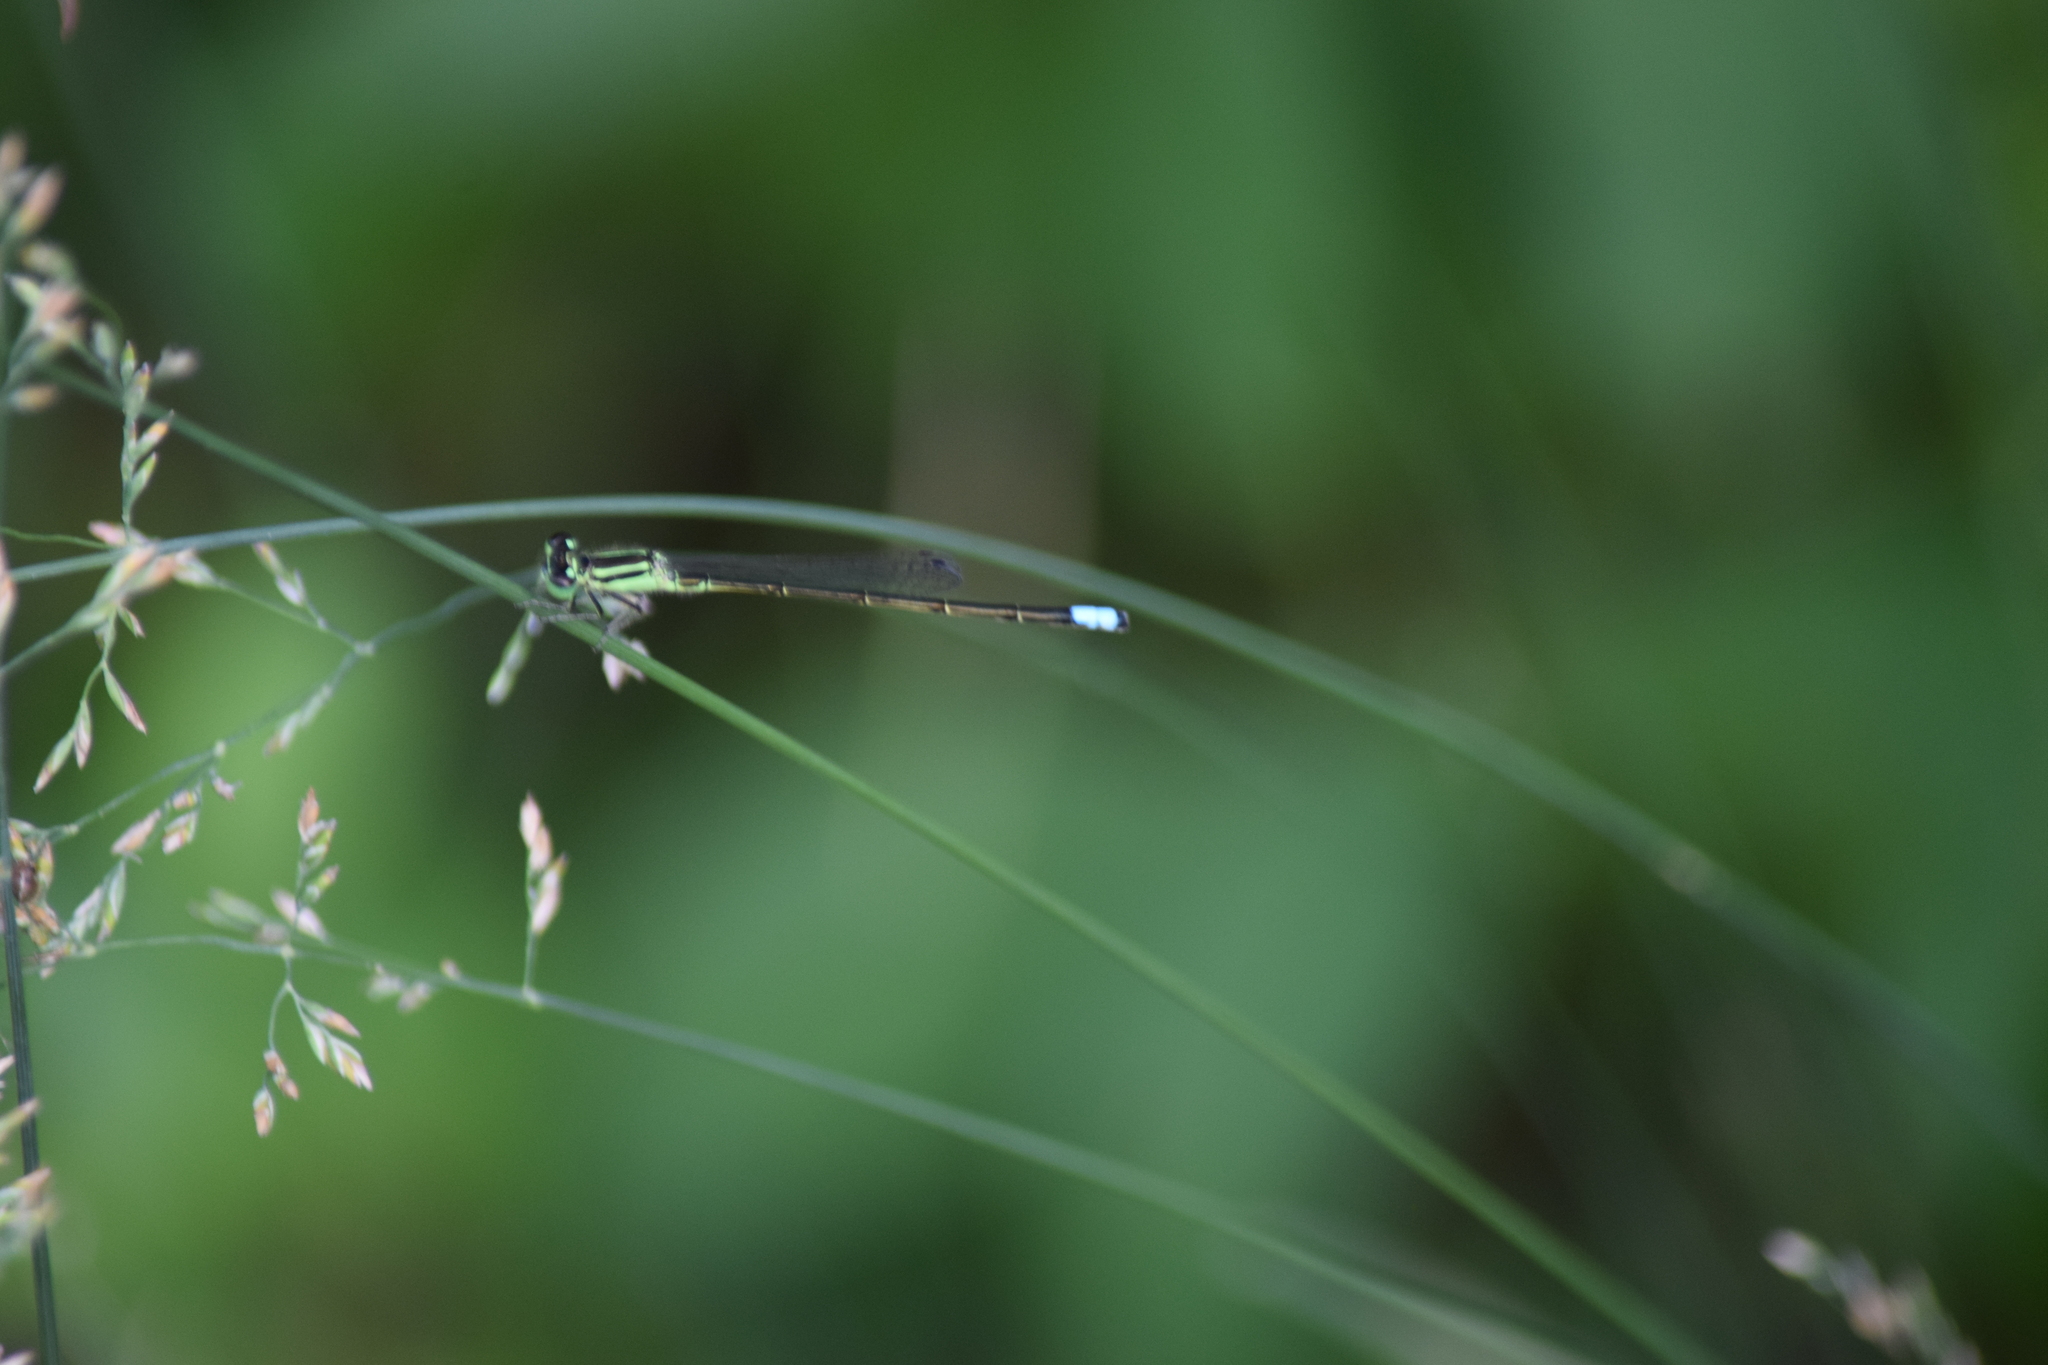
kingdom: Animalia
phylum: Arthropoda
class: Insecta
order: Odonata
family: Coenagrionidae
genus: Ischnura
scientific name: Ischnura verticalis
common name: Eastern forktail
